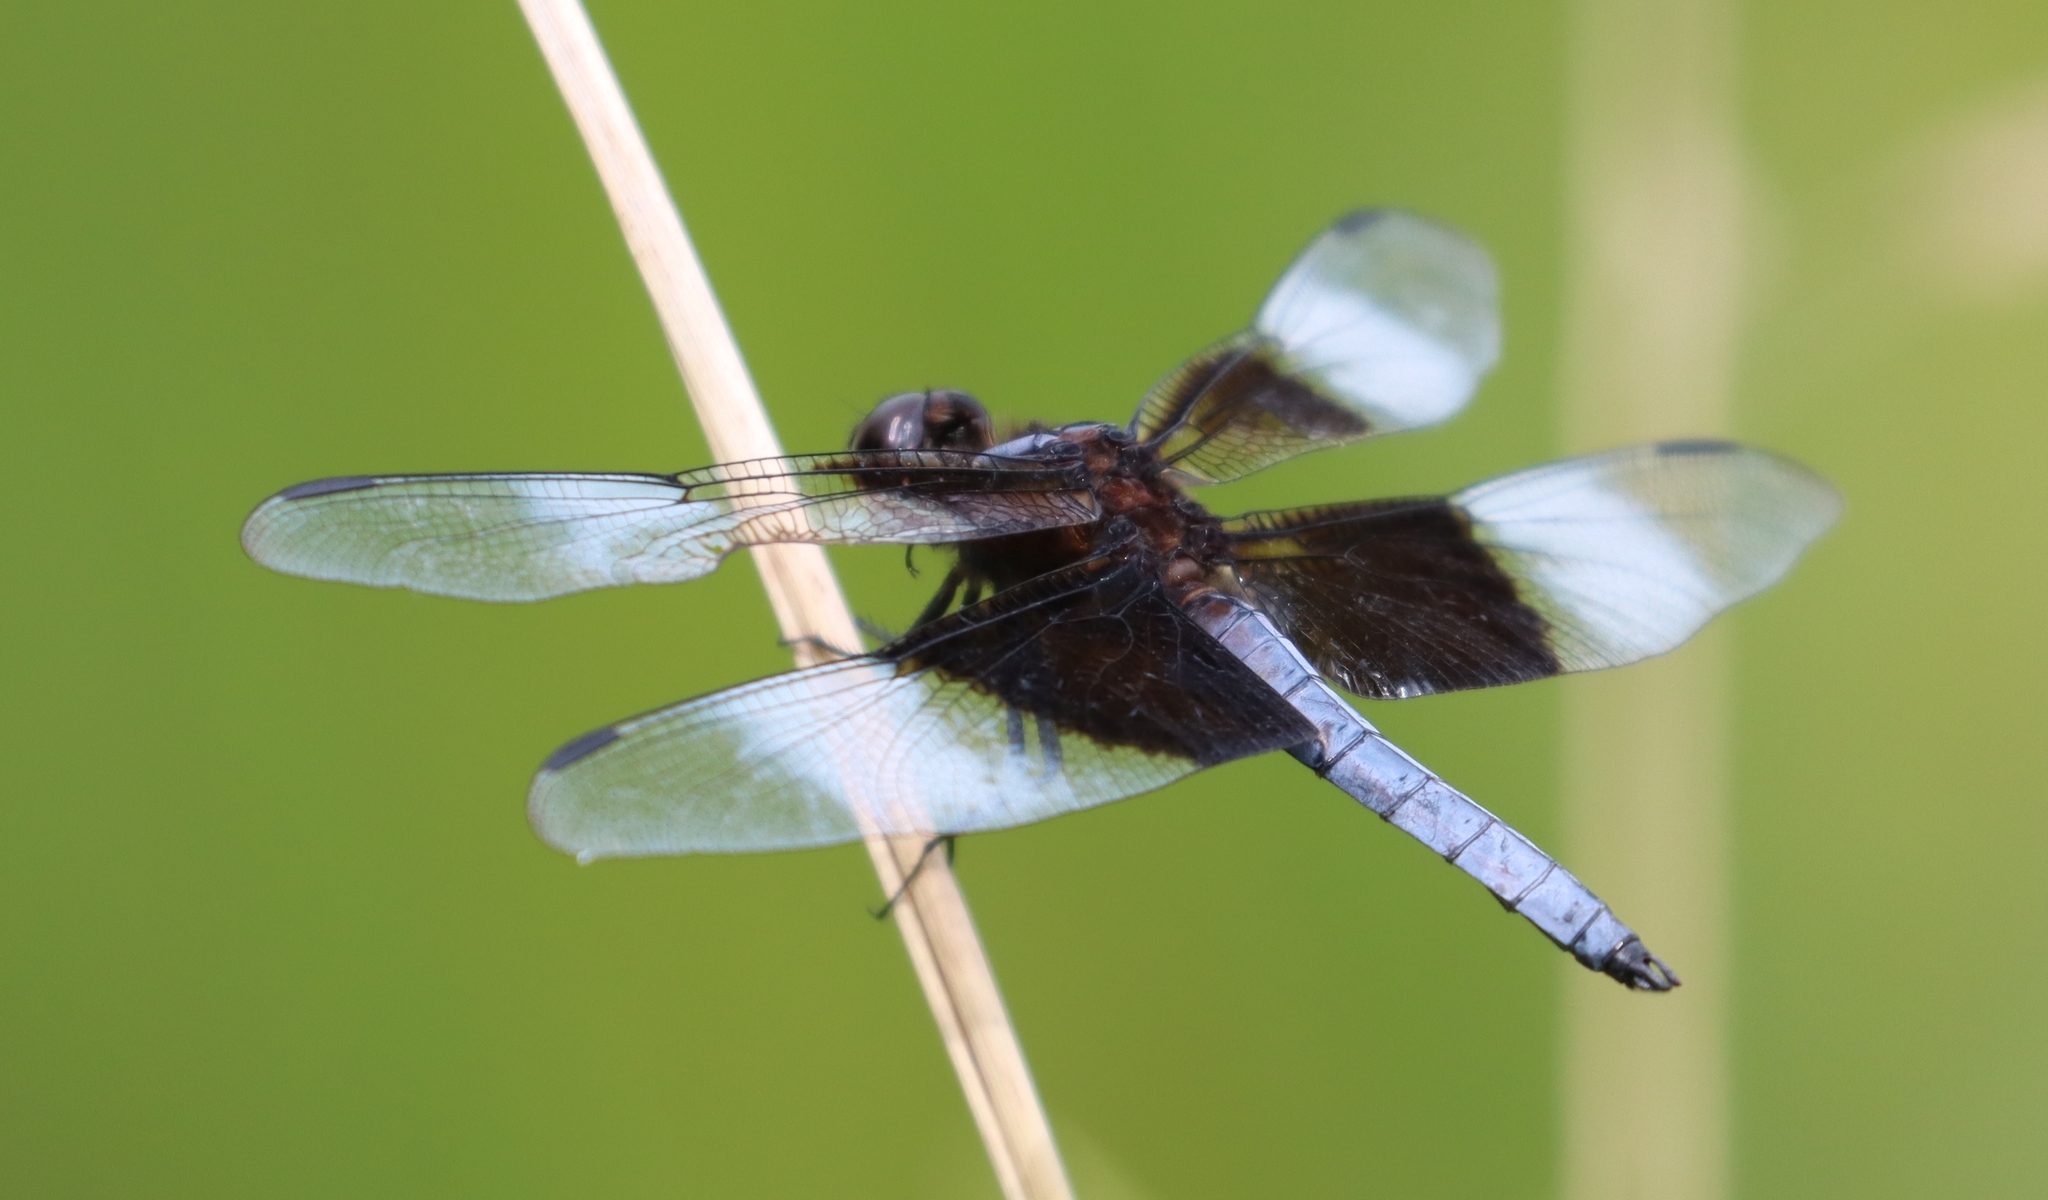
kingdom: Animalia
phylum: Arthropoda
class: Insecta
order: Odonata
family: Libellulidae
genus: Libellula
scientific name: Libellula luctuosa
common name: Widow skimmer
